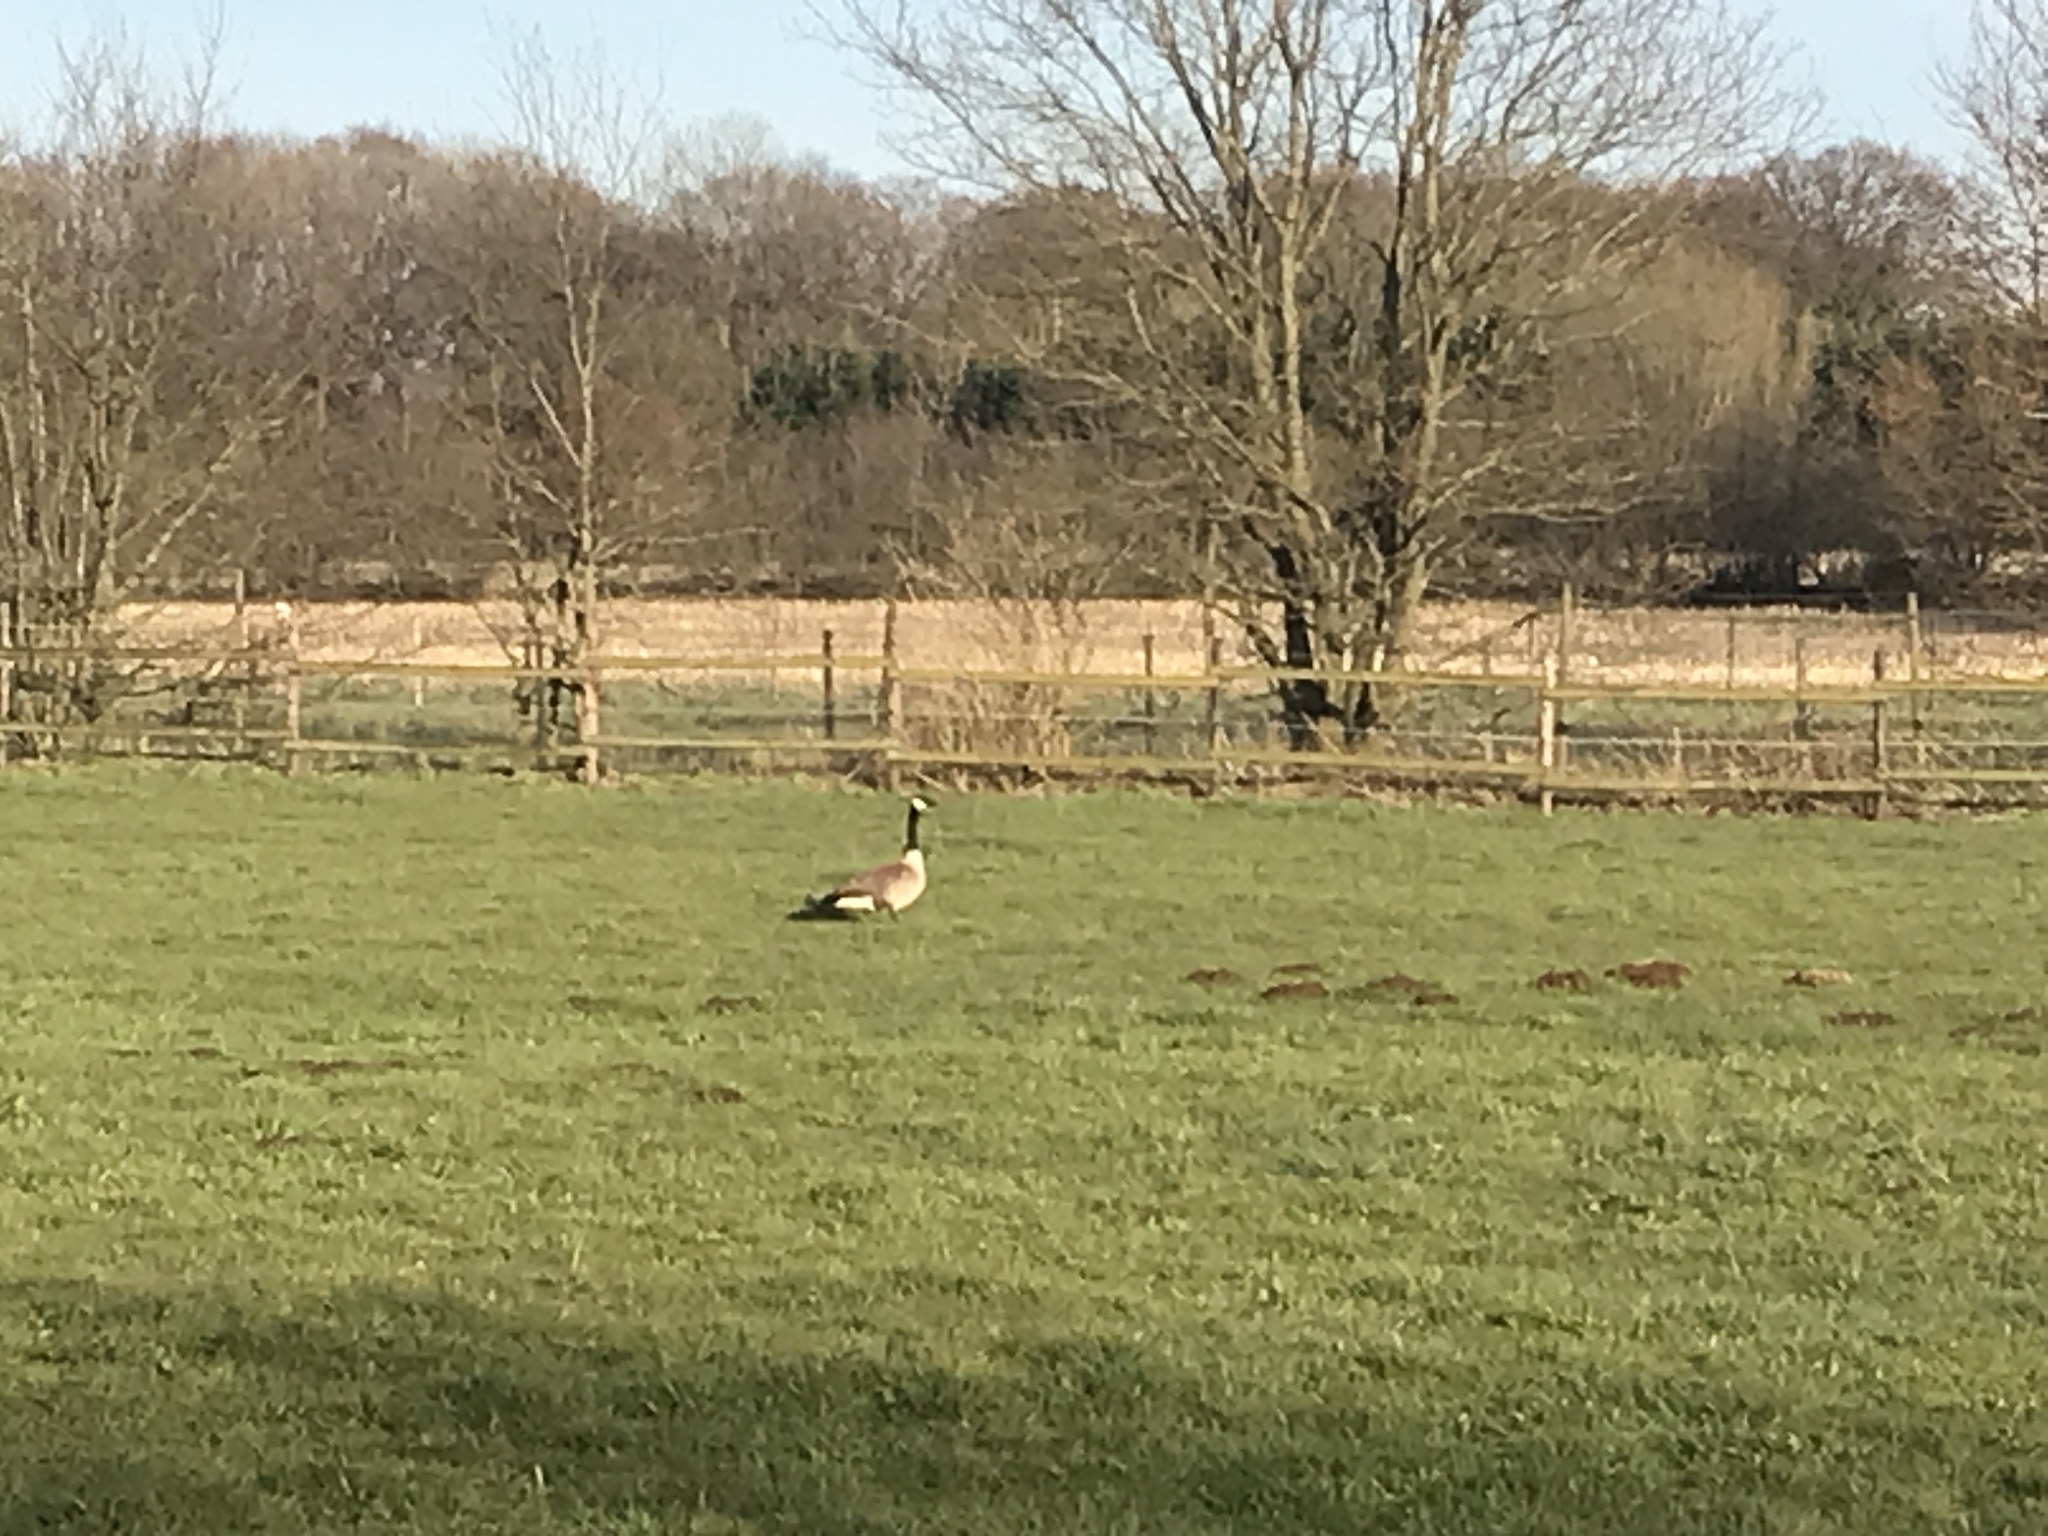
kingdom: Animalia
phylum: Chordata
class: Aves
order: Anseriformes
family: Anatidae
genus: Branta
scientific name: Branta canadensis
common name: Canada goose
